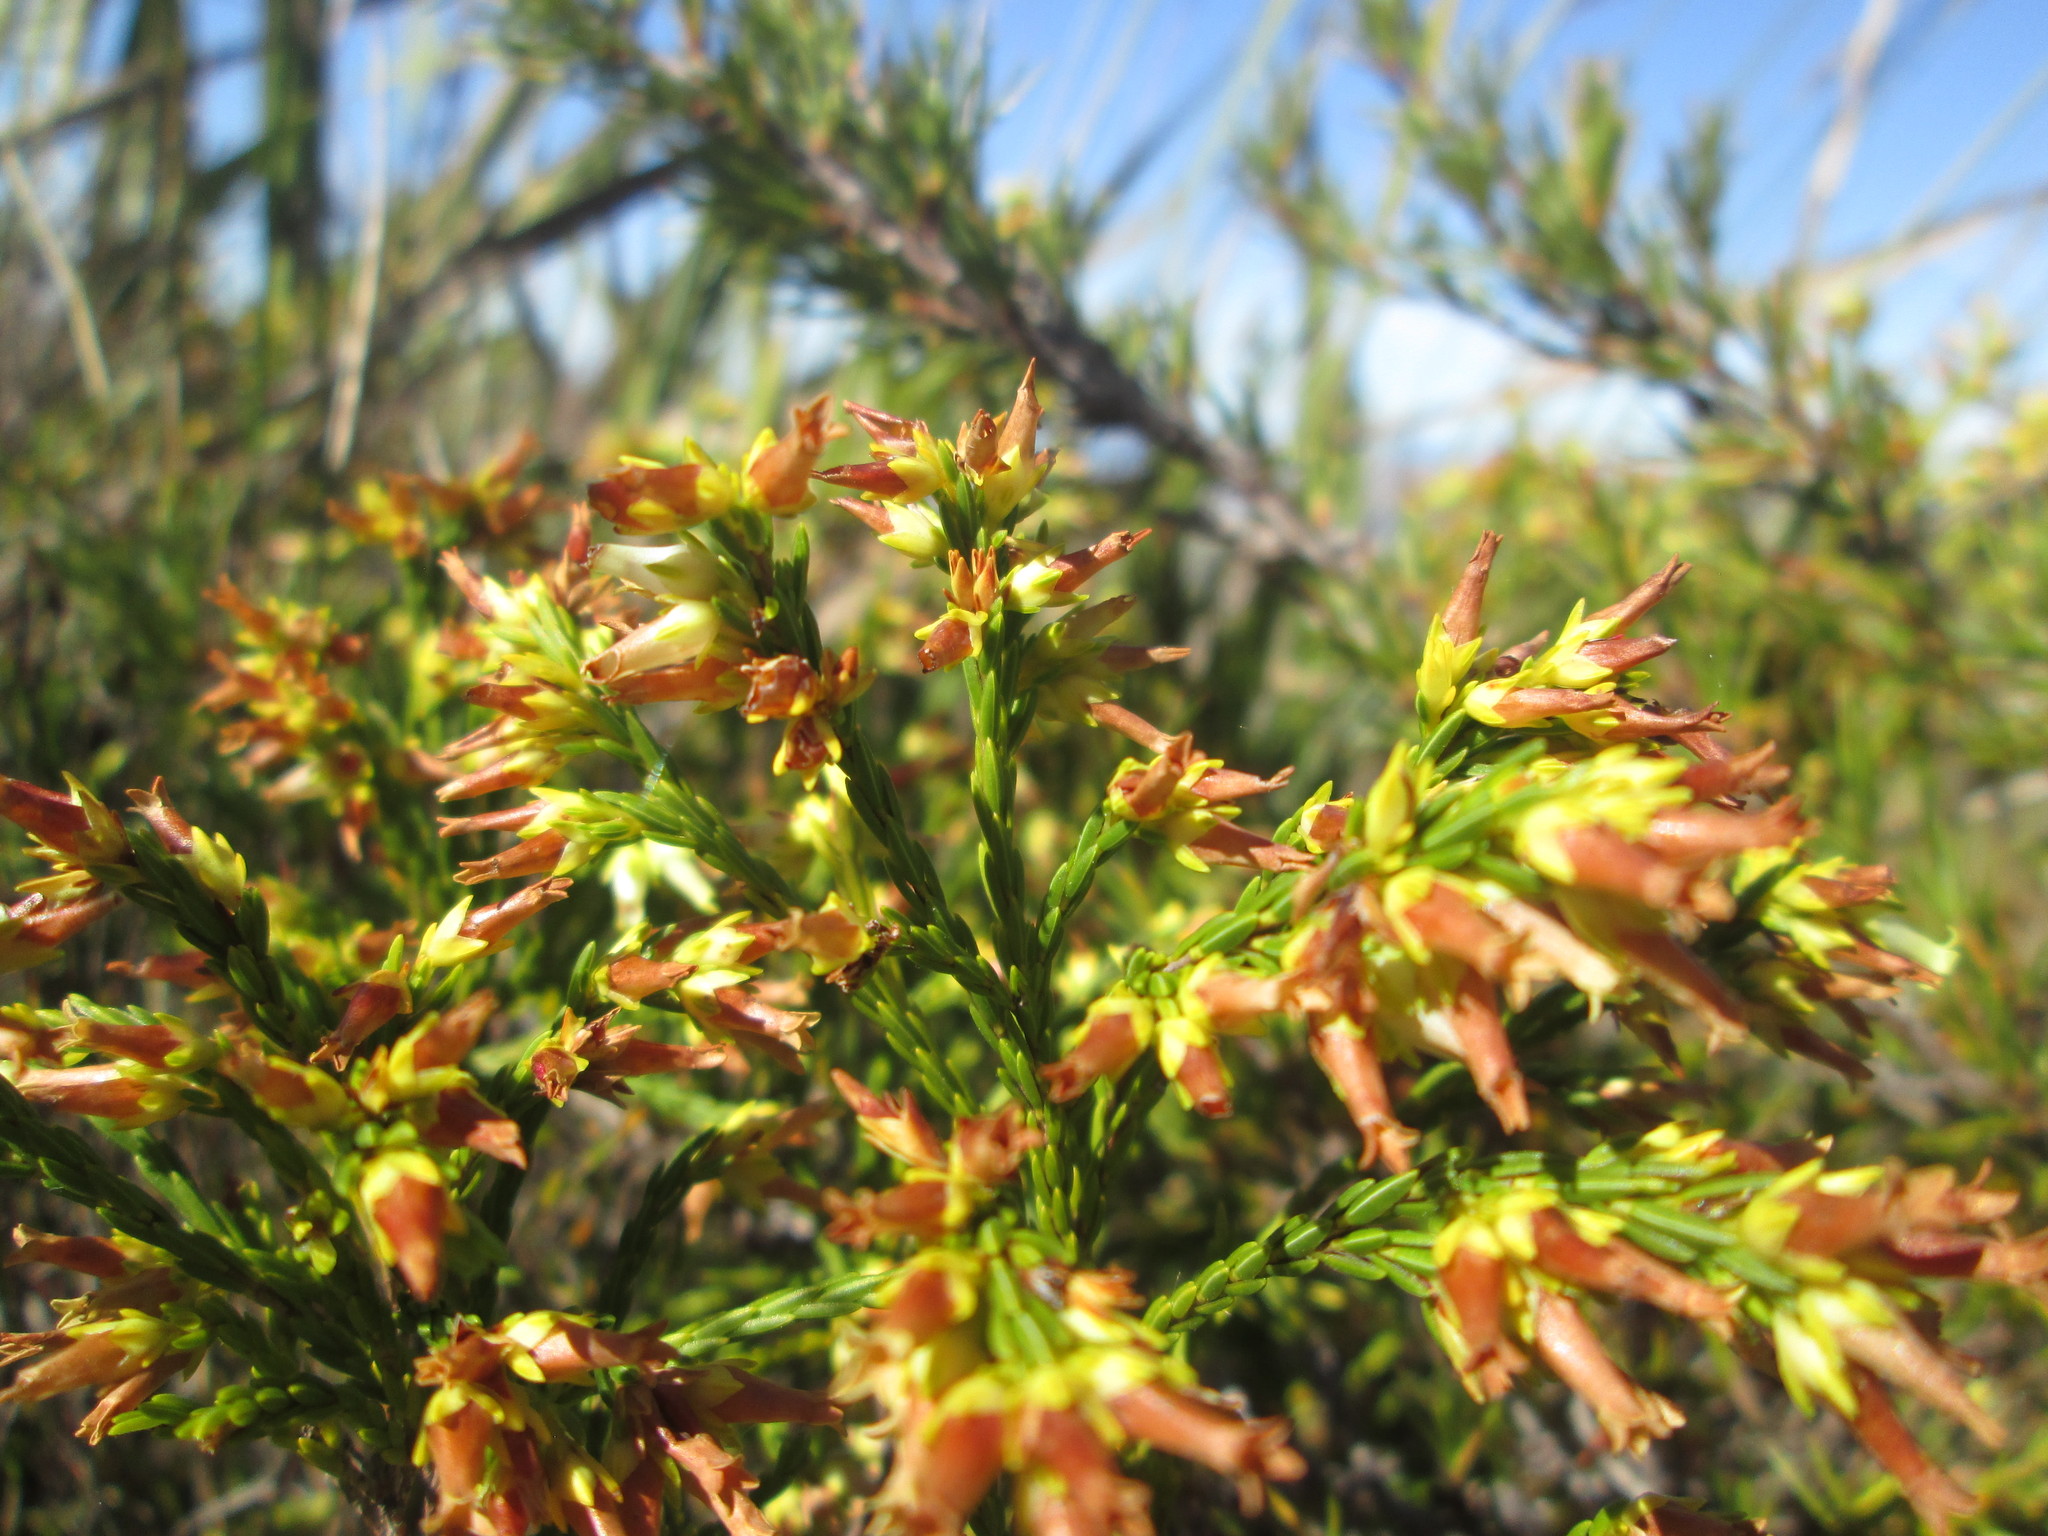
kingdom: Plantae
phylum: Tracheophyta
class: Magnoliopsida
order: Ericales
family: Ericaceae
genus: Erica
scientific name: Erica lutea
